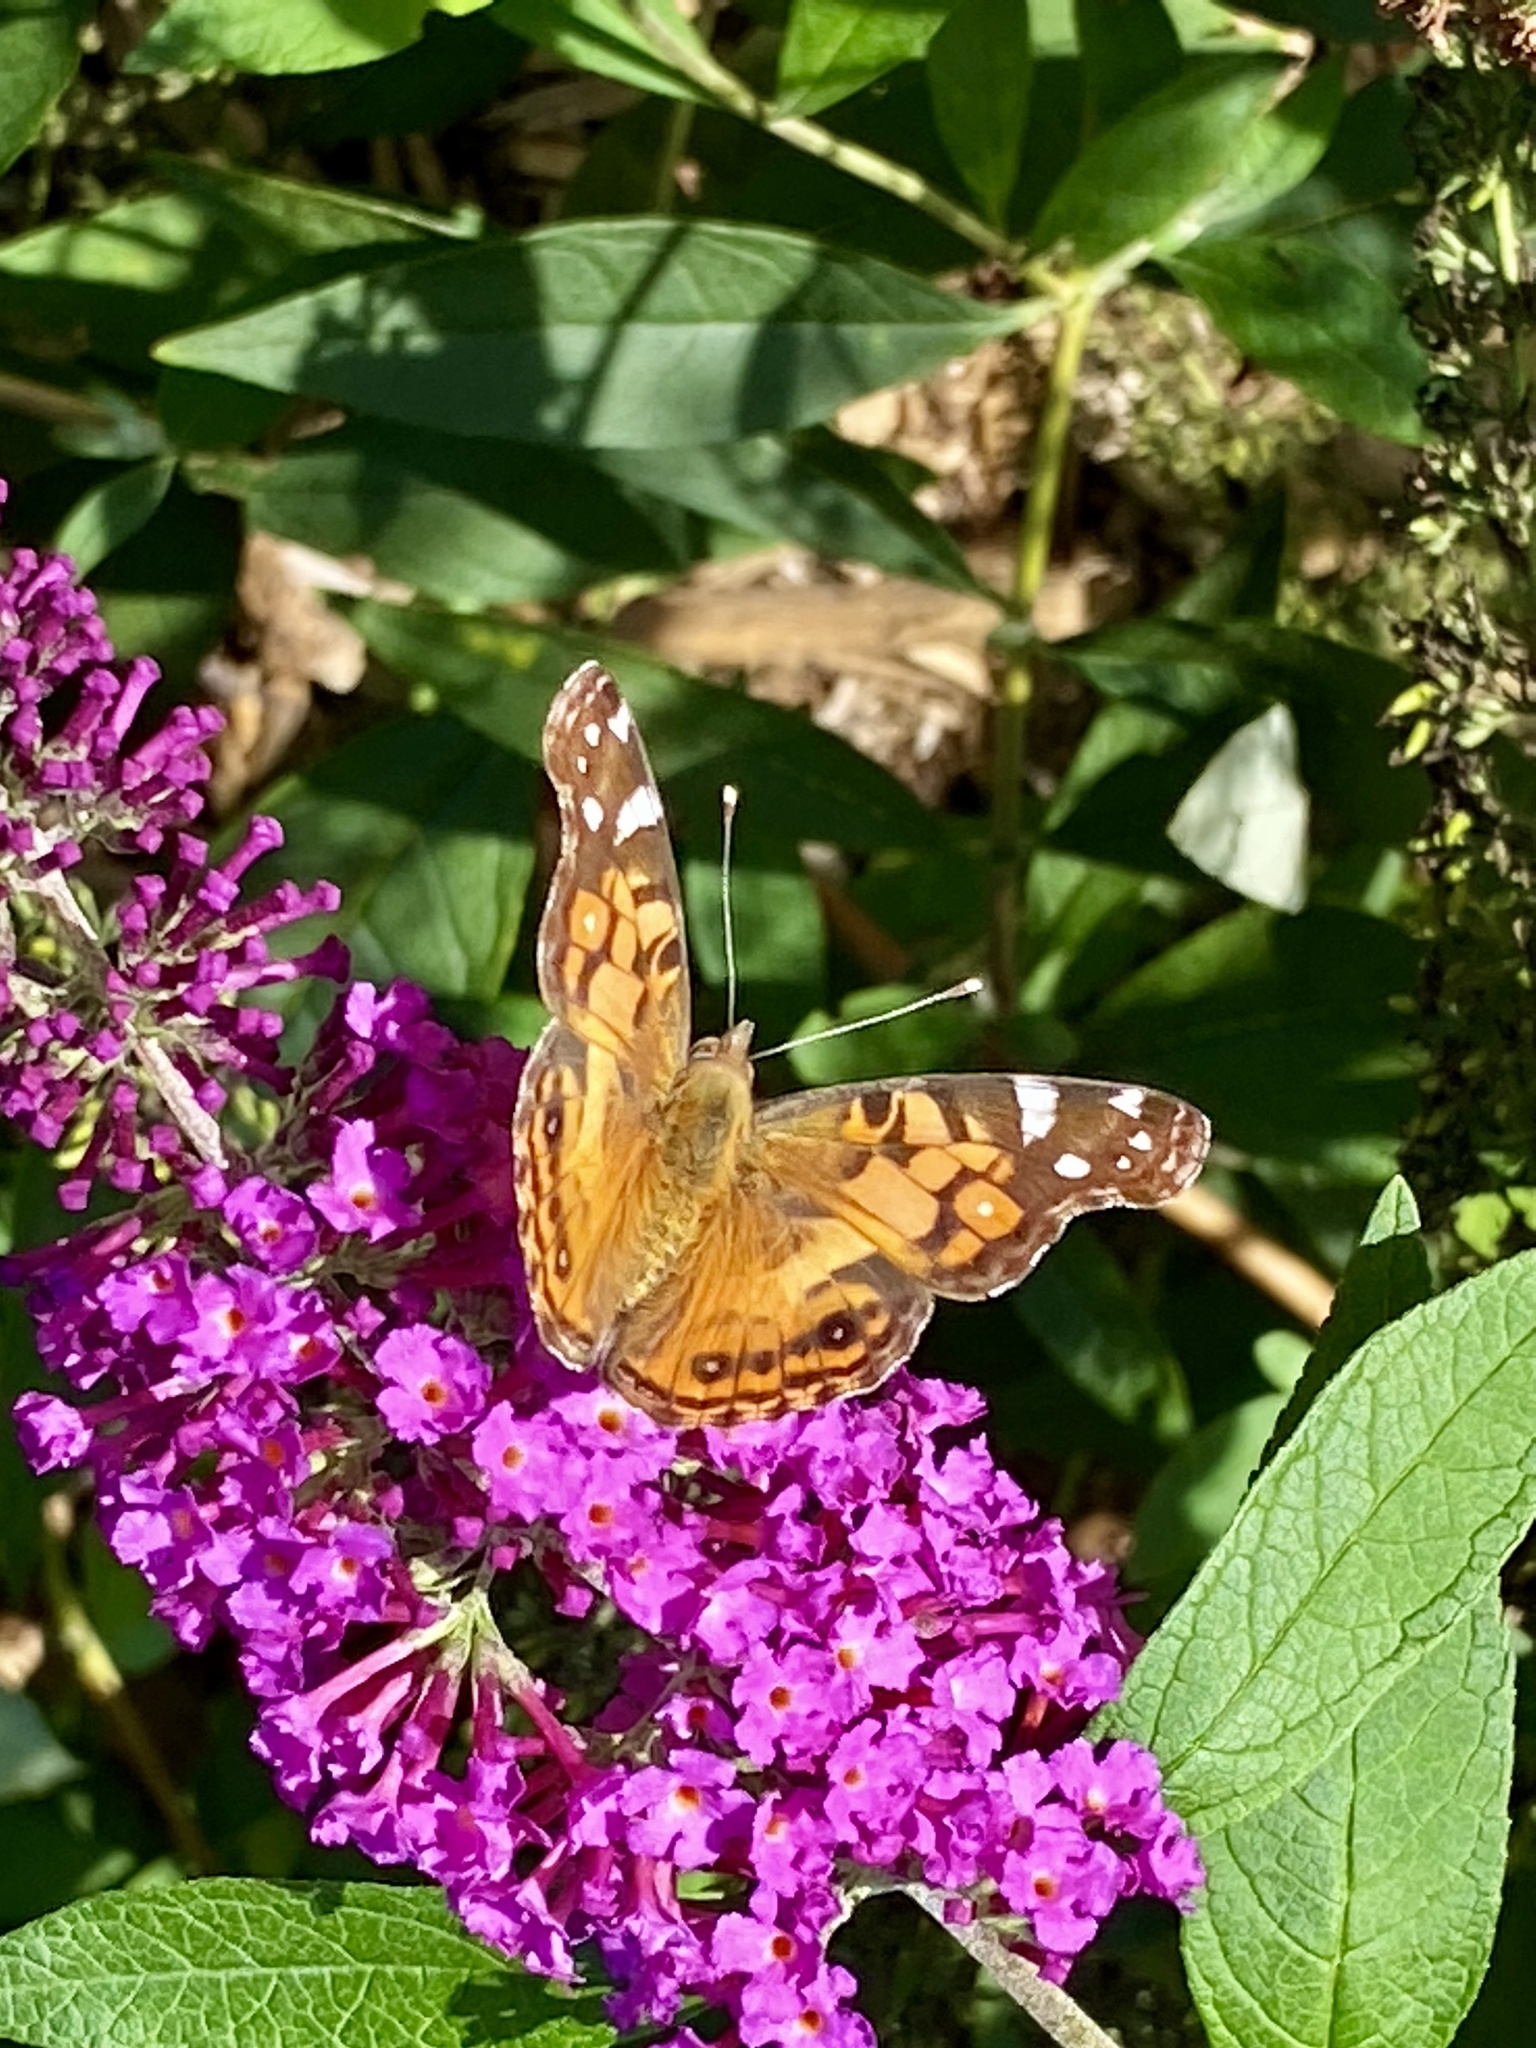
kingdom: Animalia
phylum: Arthropoda
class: Insecta
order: Lepidoptera
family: Nymphalidae
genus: Vanessa
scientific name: Vanessa virginiensis
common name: American lady
